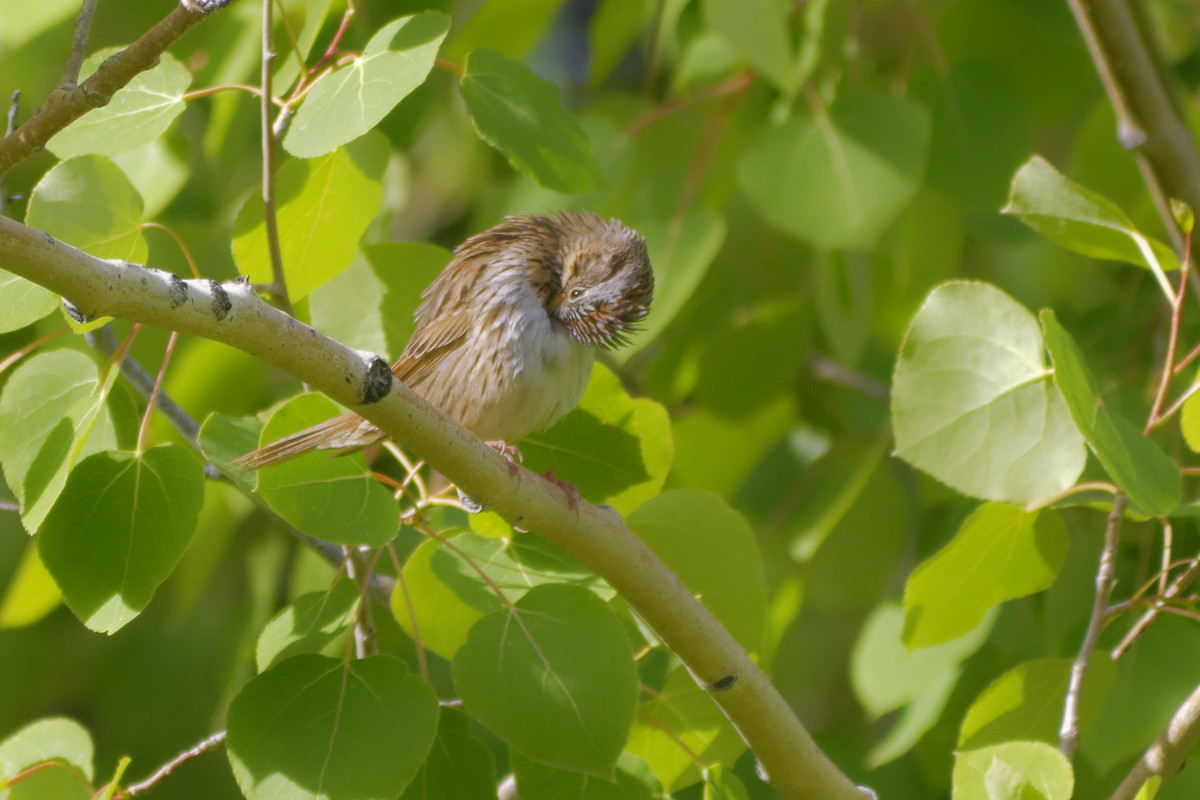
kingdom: Animalia
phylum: Chordata
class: Aves
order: Passeriformes
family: Passerellidae
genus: Melospiza
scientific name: Melospiza lincolnii
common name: Lincoln's sparrow
